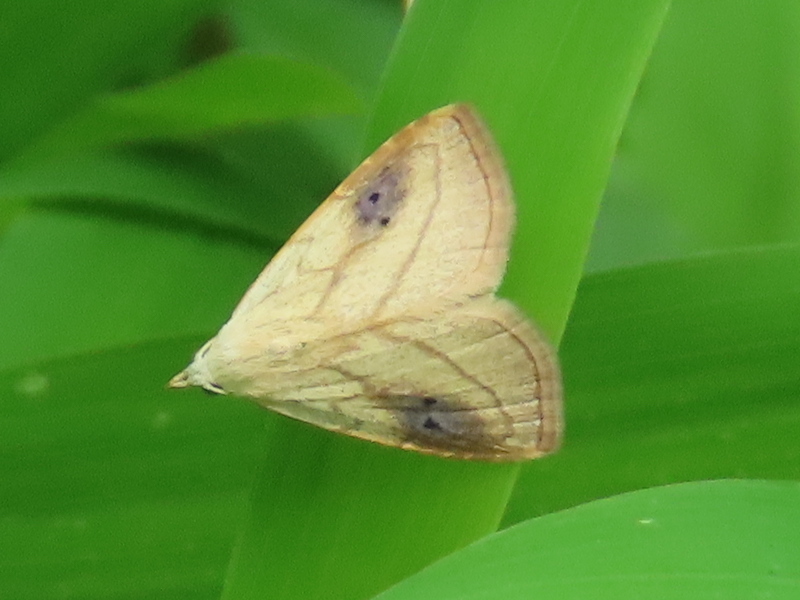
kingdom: Animalia
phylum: Arthropoda
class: Insecta
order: Lepidoptera
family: Erebidae
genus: Rivula
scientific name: Rivula propinqualis
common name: Spotted grass moth
